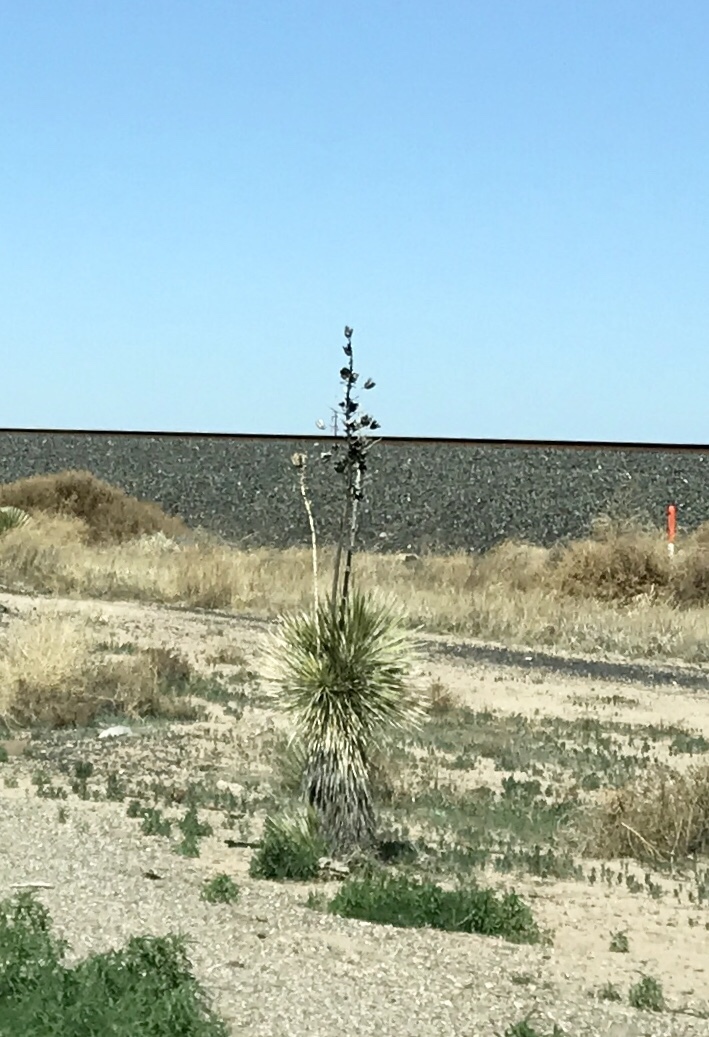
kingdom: Plantae
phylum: Tracheophyta
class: Liliopsida
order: Asparagales
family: Asparagaceae
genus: Yucca
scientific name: Yucca elata
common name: Palmella
